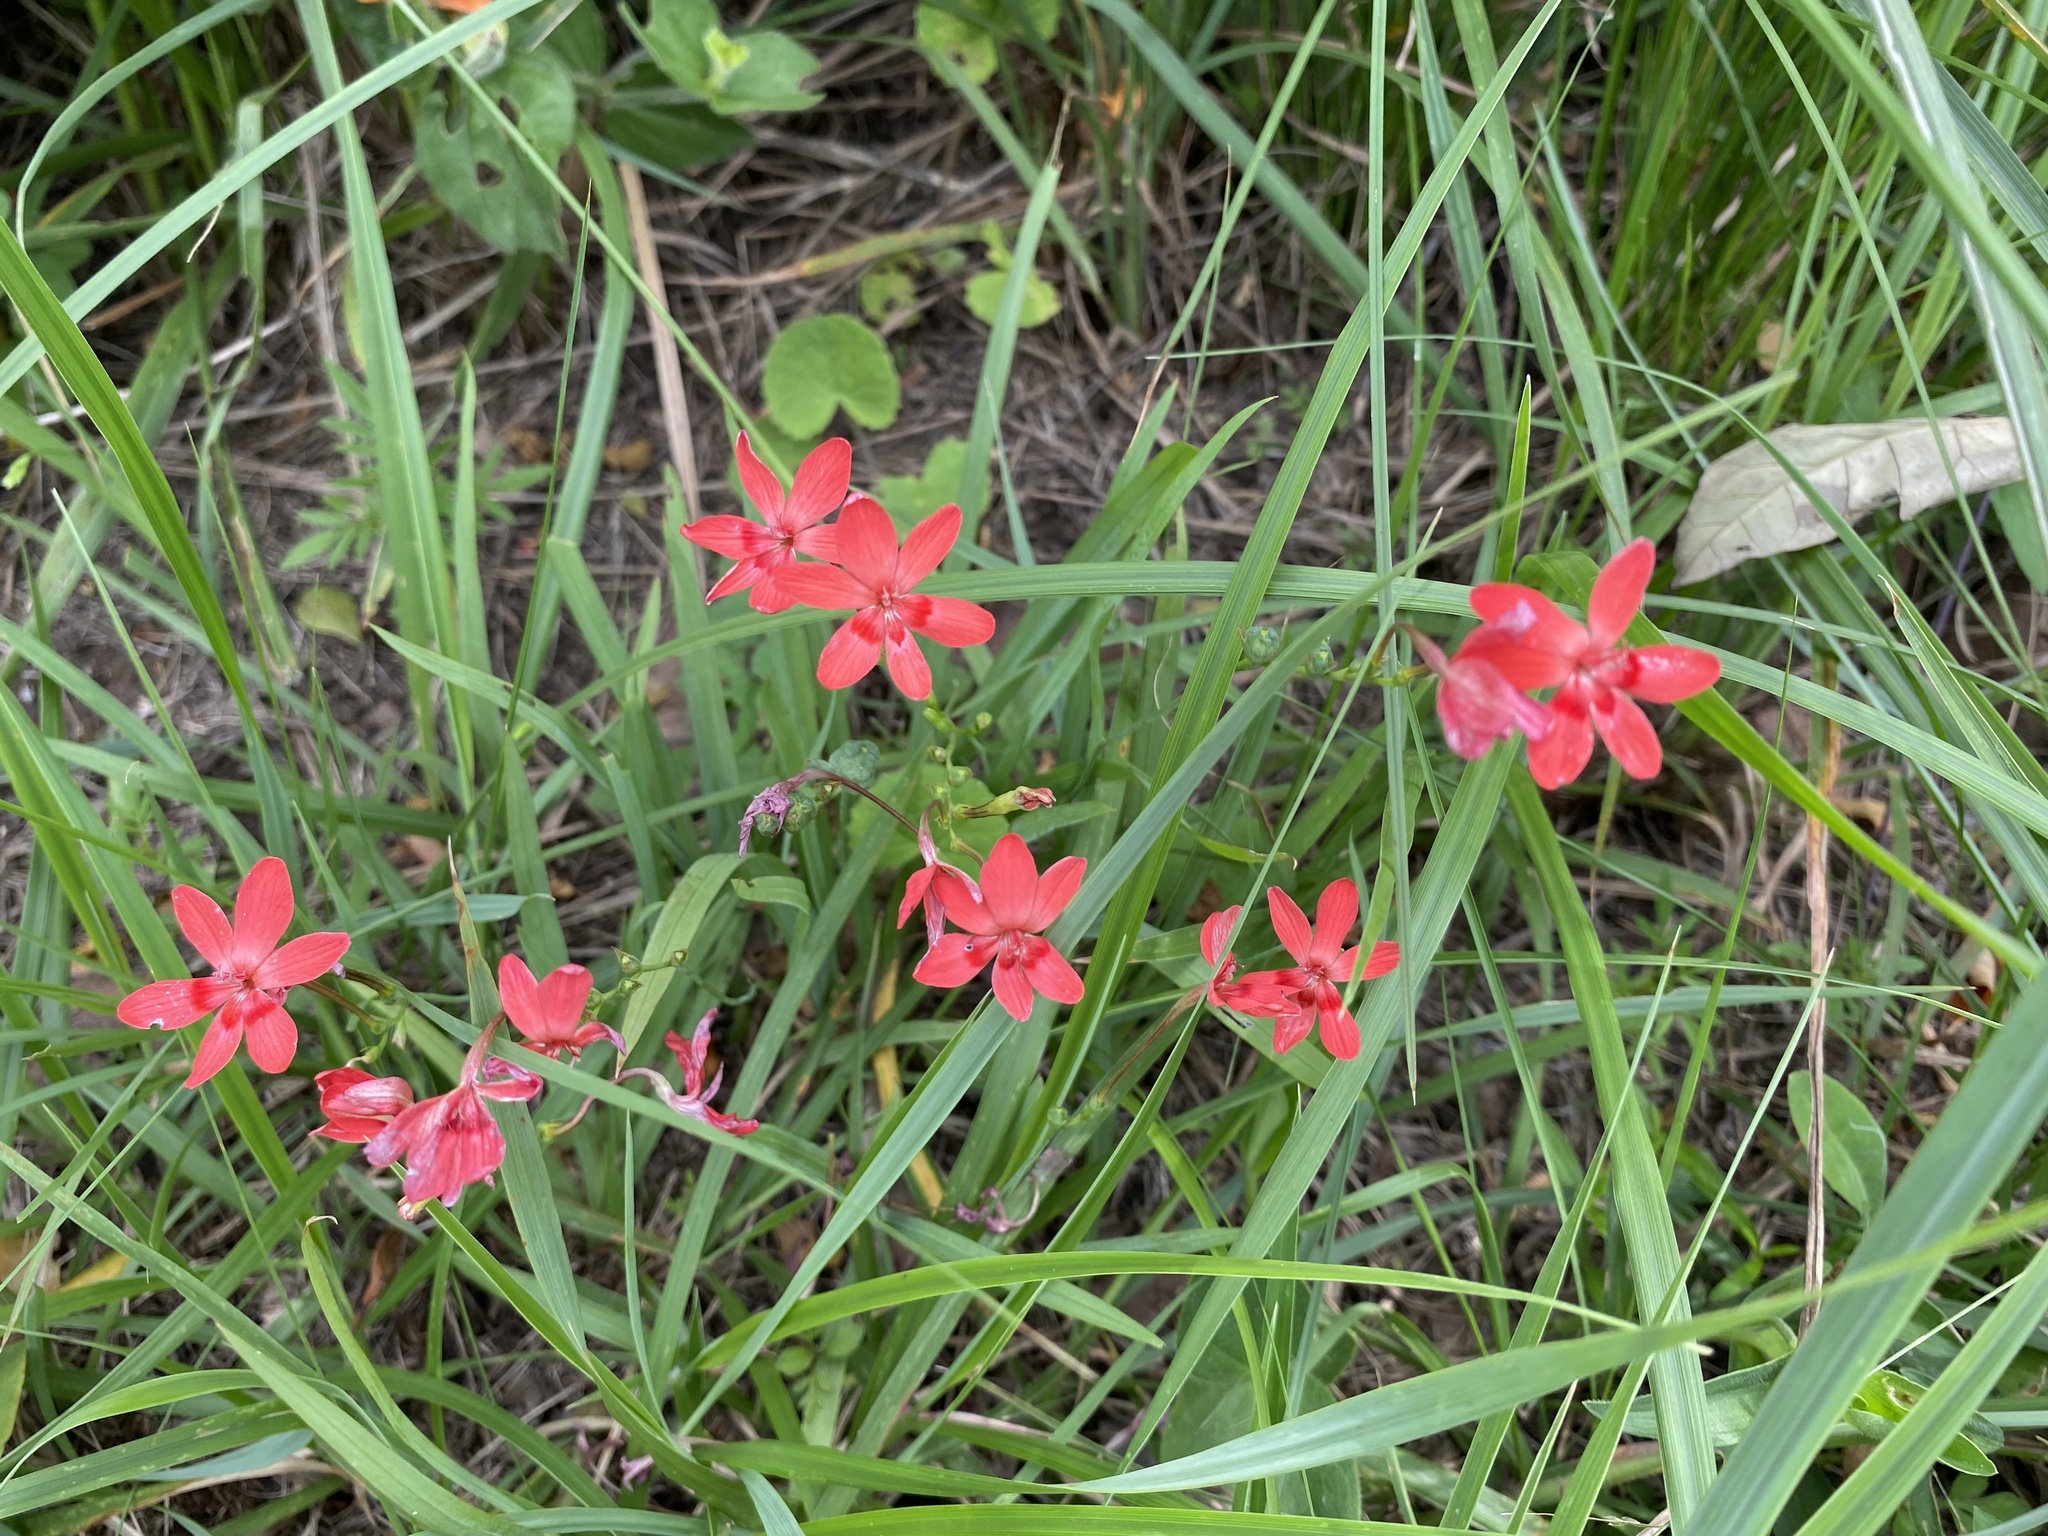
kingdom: Plantae
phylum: Tracheophyta
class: Liliopsida
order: Asparagales
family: Iridaceae
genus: Freesia
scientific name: Freesia laxa
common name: False freesia
